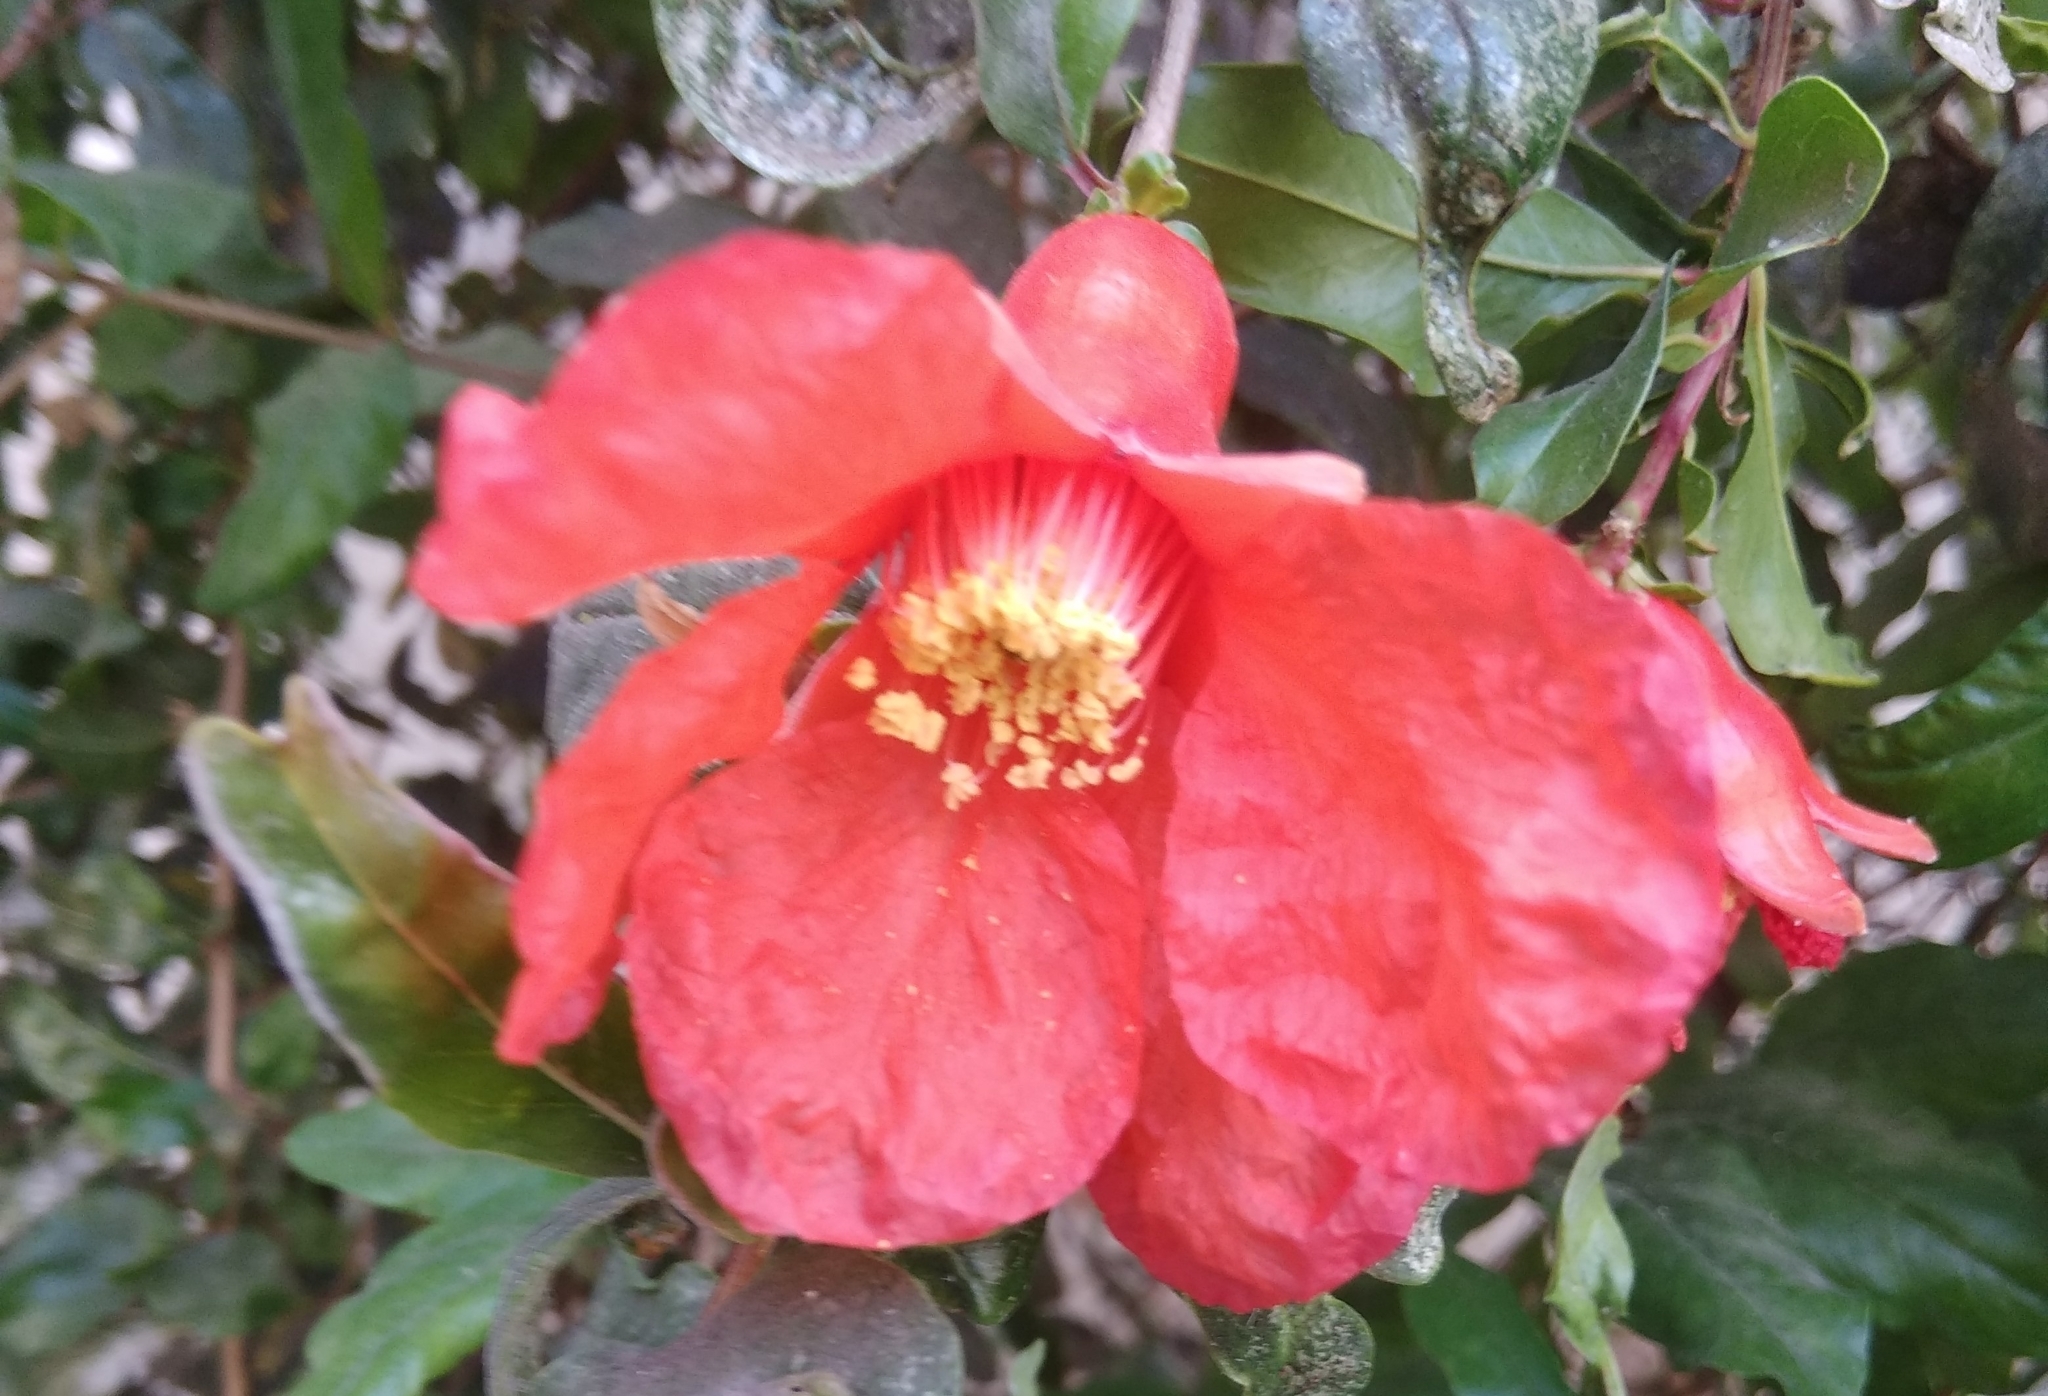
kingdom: Plantae
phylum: Tracheophyta
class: Magnoliopsida
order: Myrtales
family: Lythraceae
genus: Punica
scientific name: Punica granatum
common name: Pomegranate
